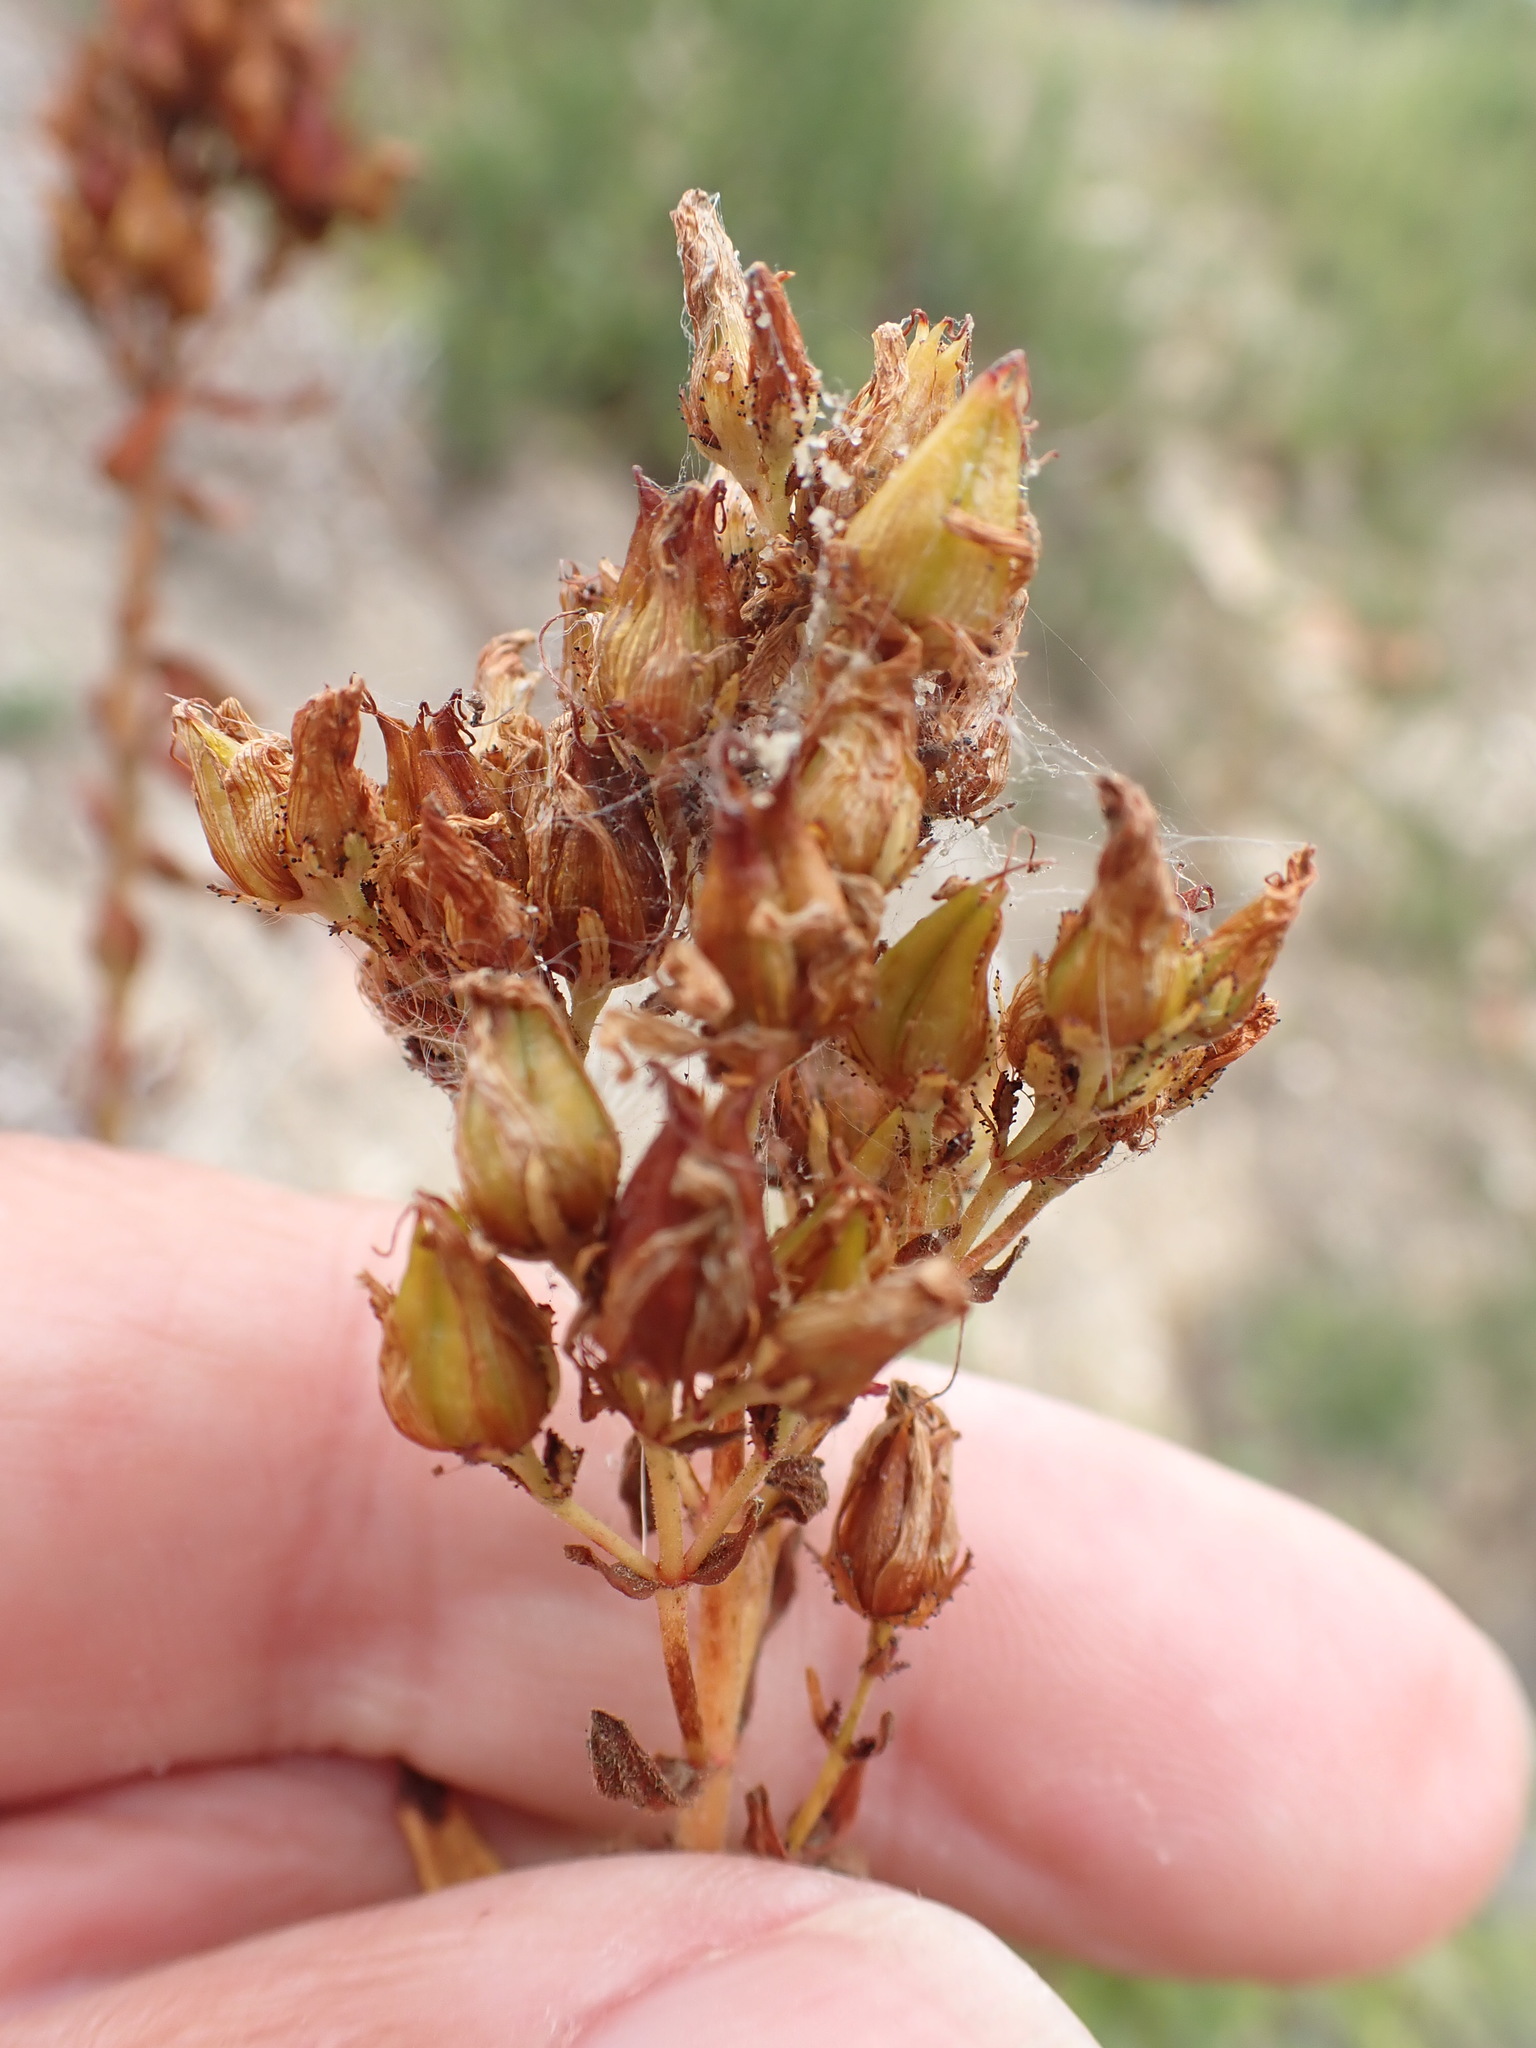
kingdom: Plantae
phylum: Tracheophyta
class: Magnoliopsida
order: Malpighiales
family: Hypericaceae
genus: Hypericum
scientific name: Hypericum hirsutum
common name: Hairy st. john's-wort
